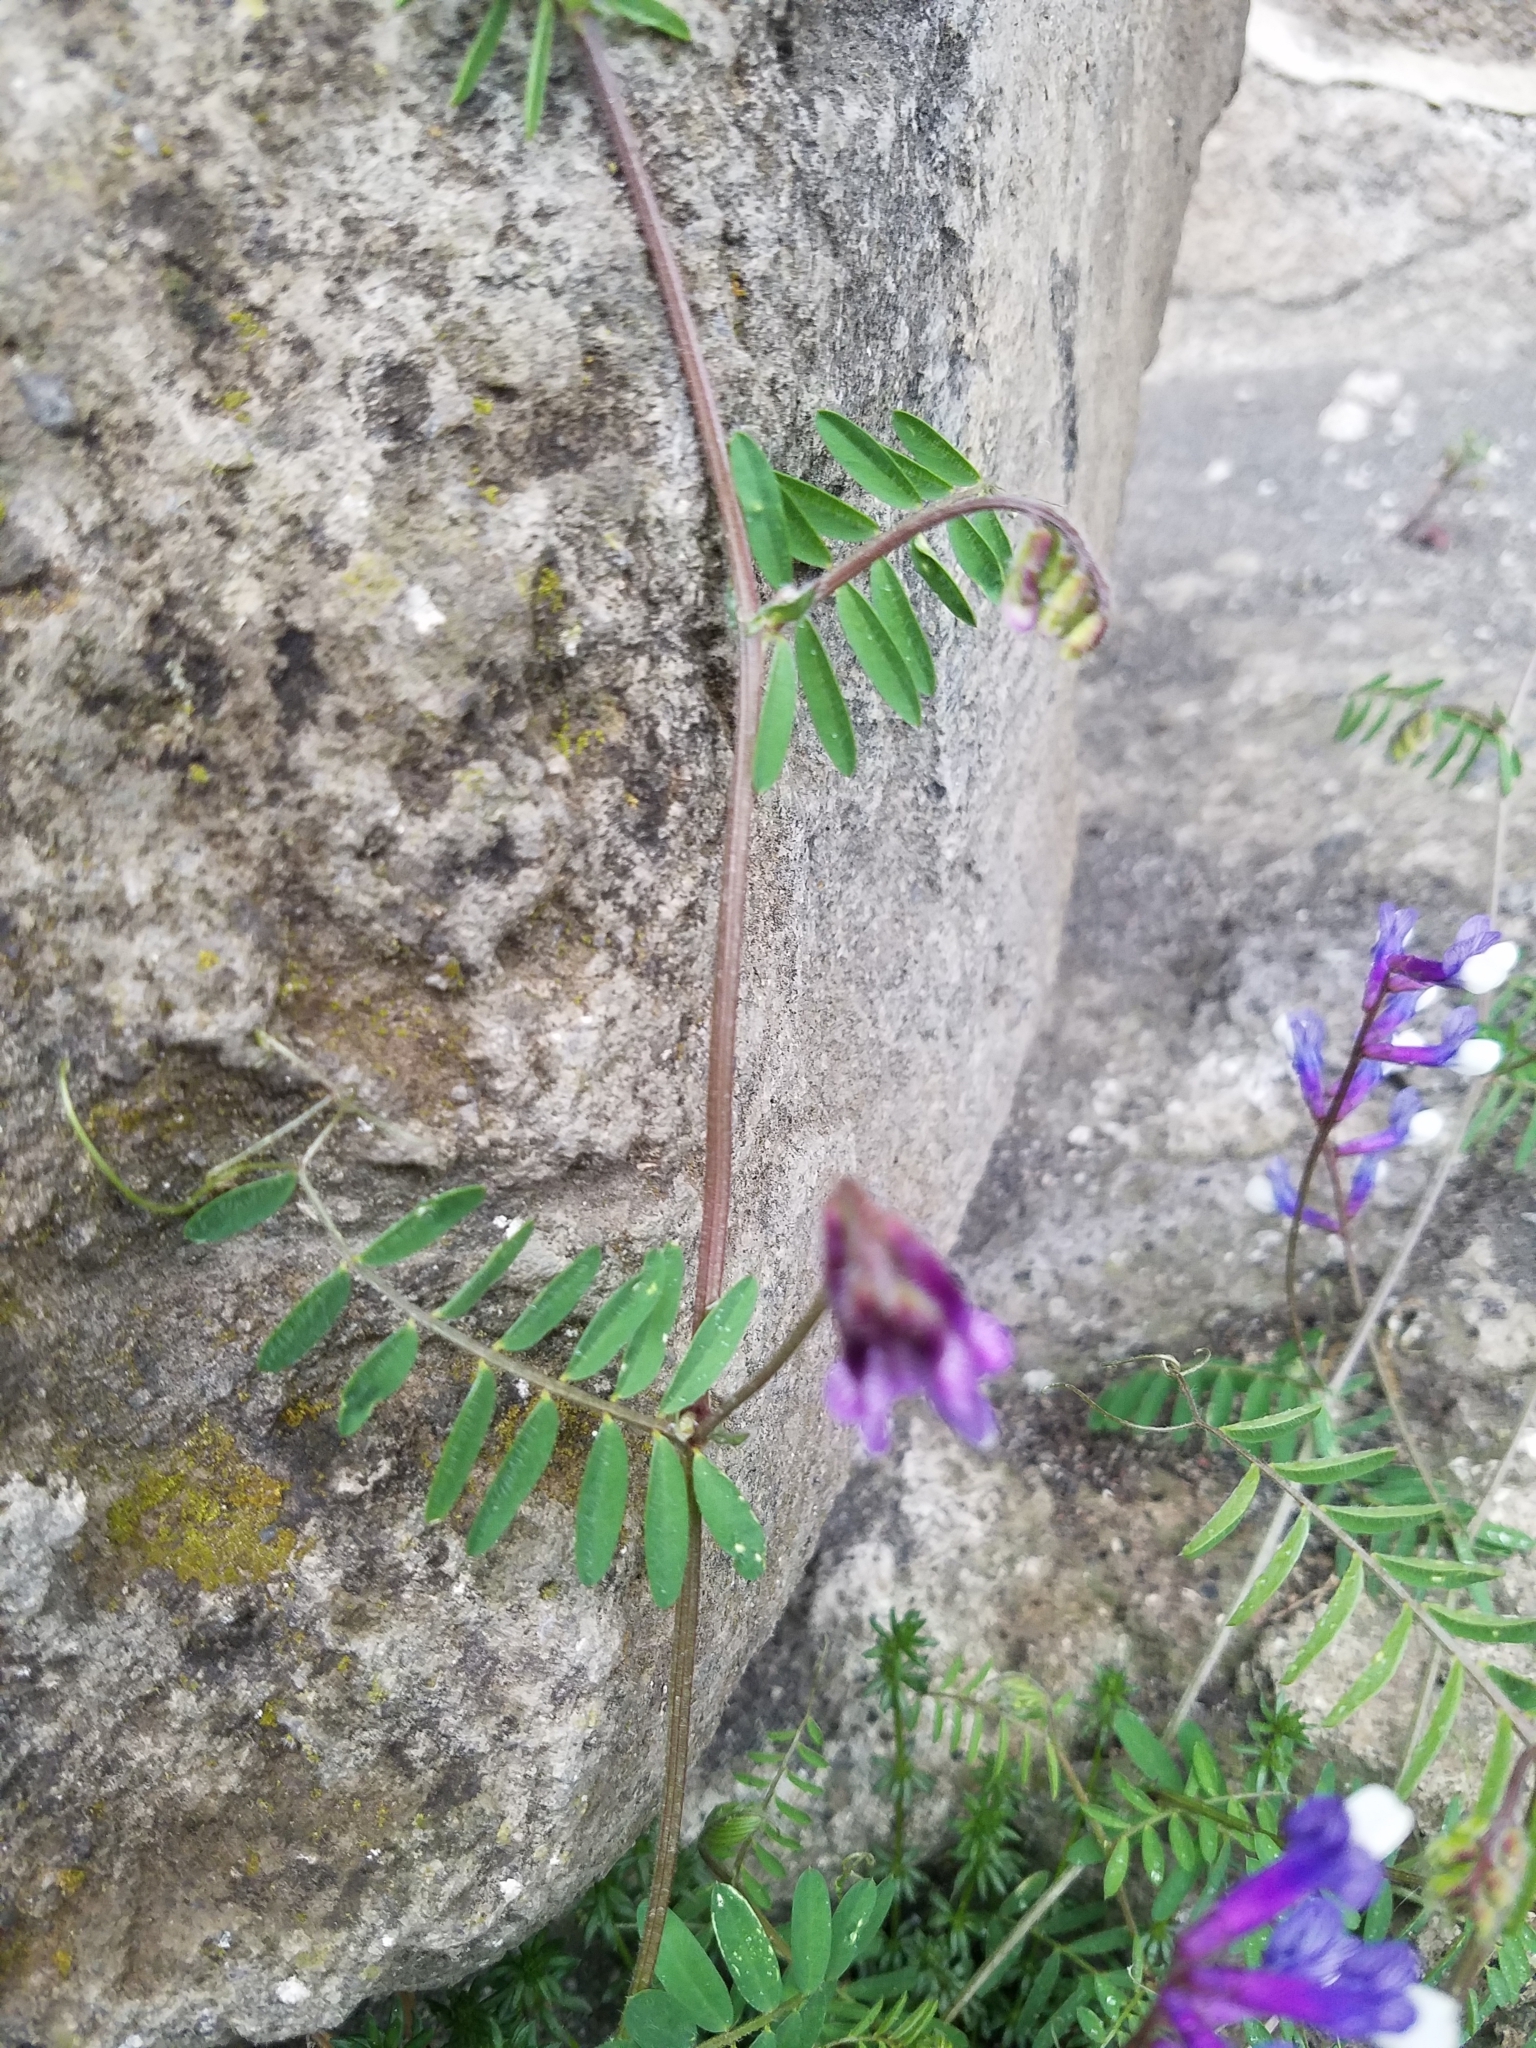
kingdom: Plantae
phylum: Tracheophyta
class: Magnoliopsida
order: Fabales
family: Fabaceae
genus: Vicia
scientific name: Vicia villosa
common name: Fodder vetch
